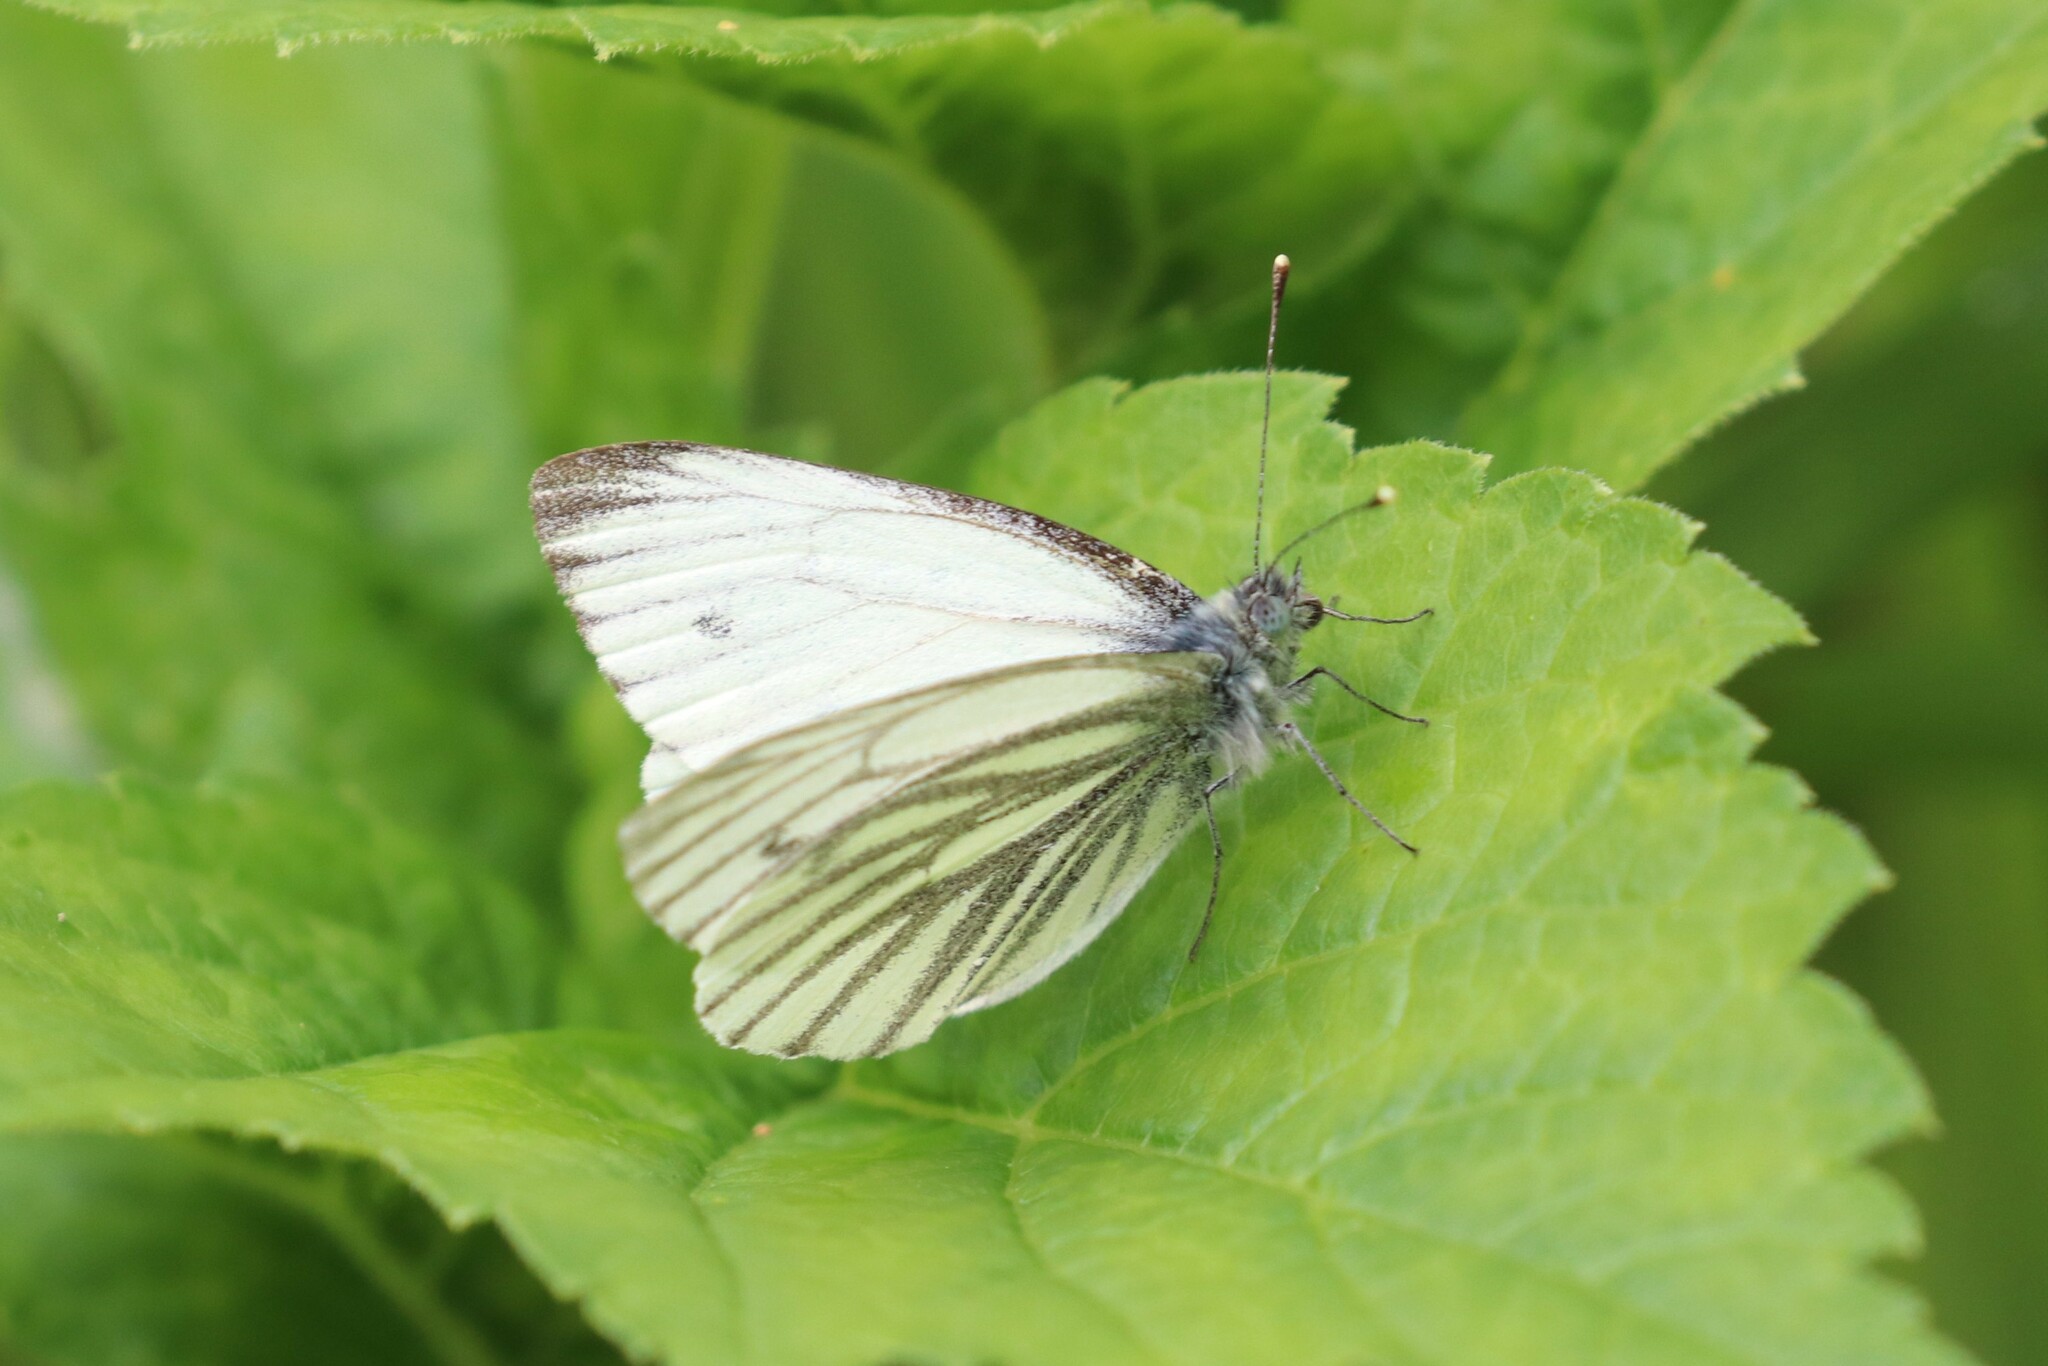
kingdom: Animalia
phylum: Arthropoda
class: Insecta
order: Lepidoptera
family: Pieridae
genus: Pieris
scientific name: Pieris napi
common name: Green-veined white
